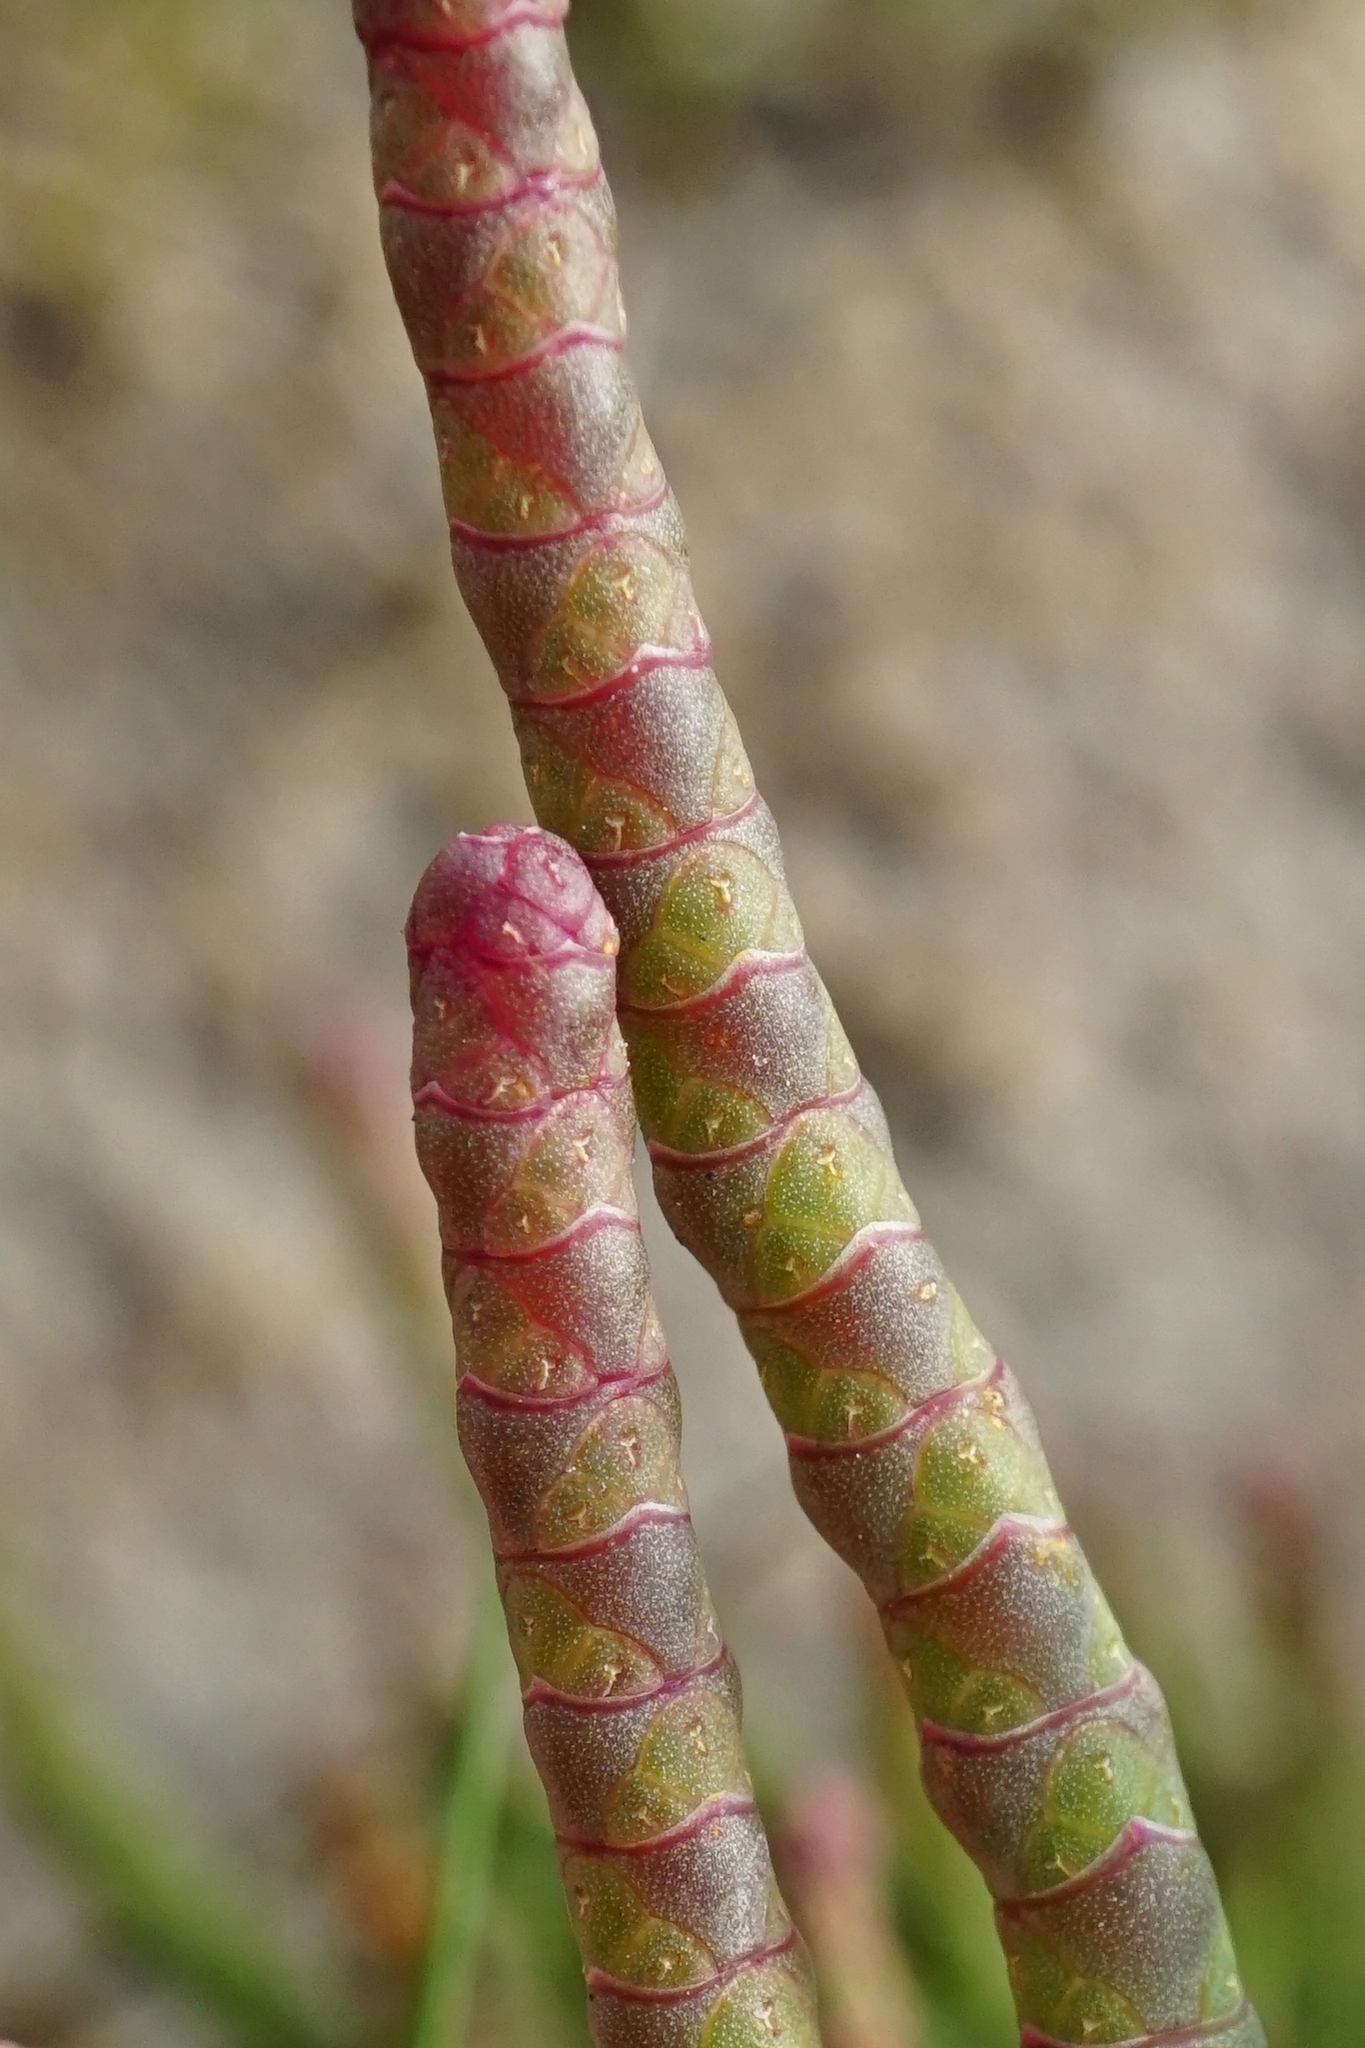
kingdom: Plantae
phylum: Tracheophyta
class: Magnoliopsida
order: Caryophyllales
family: Amaranthaceae
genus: Salicornia
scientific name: Salicornia perennans
